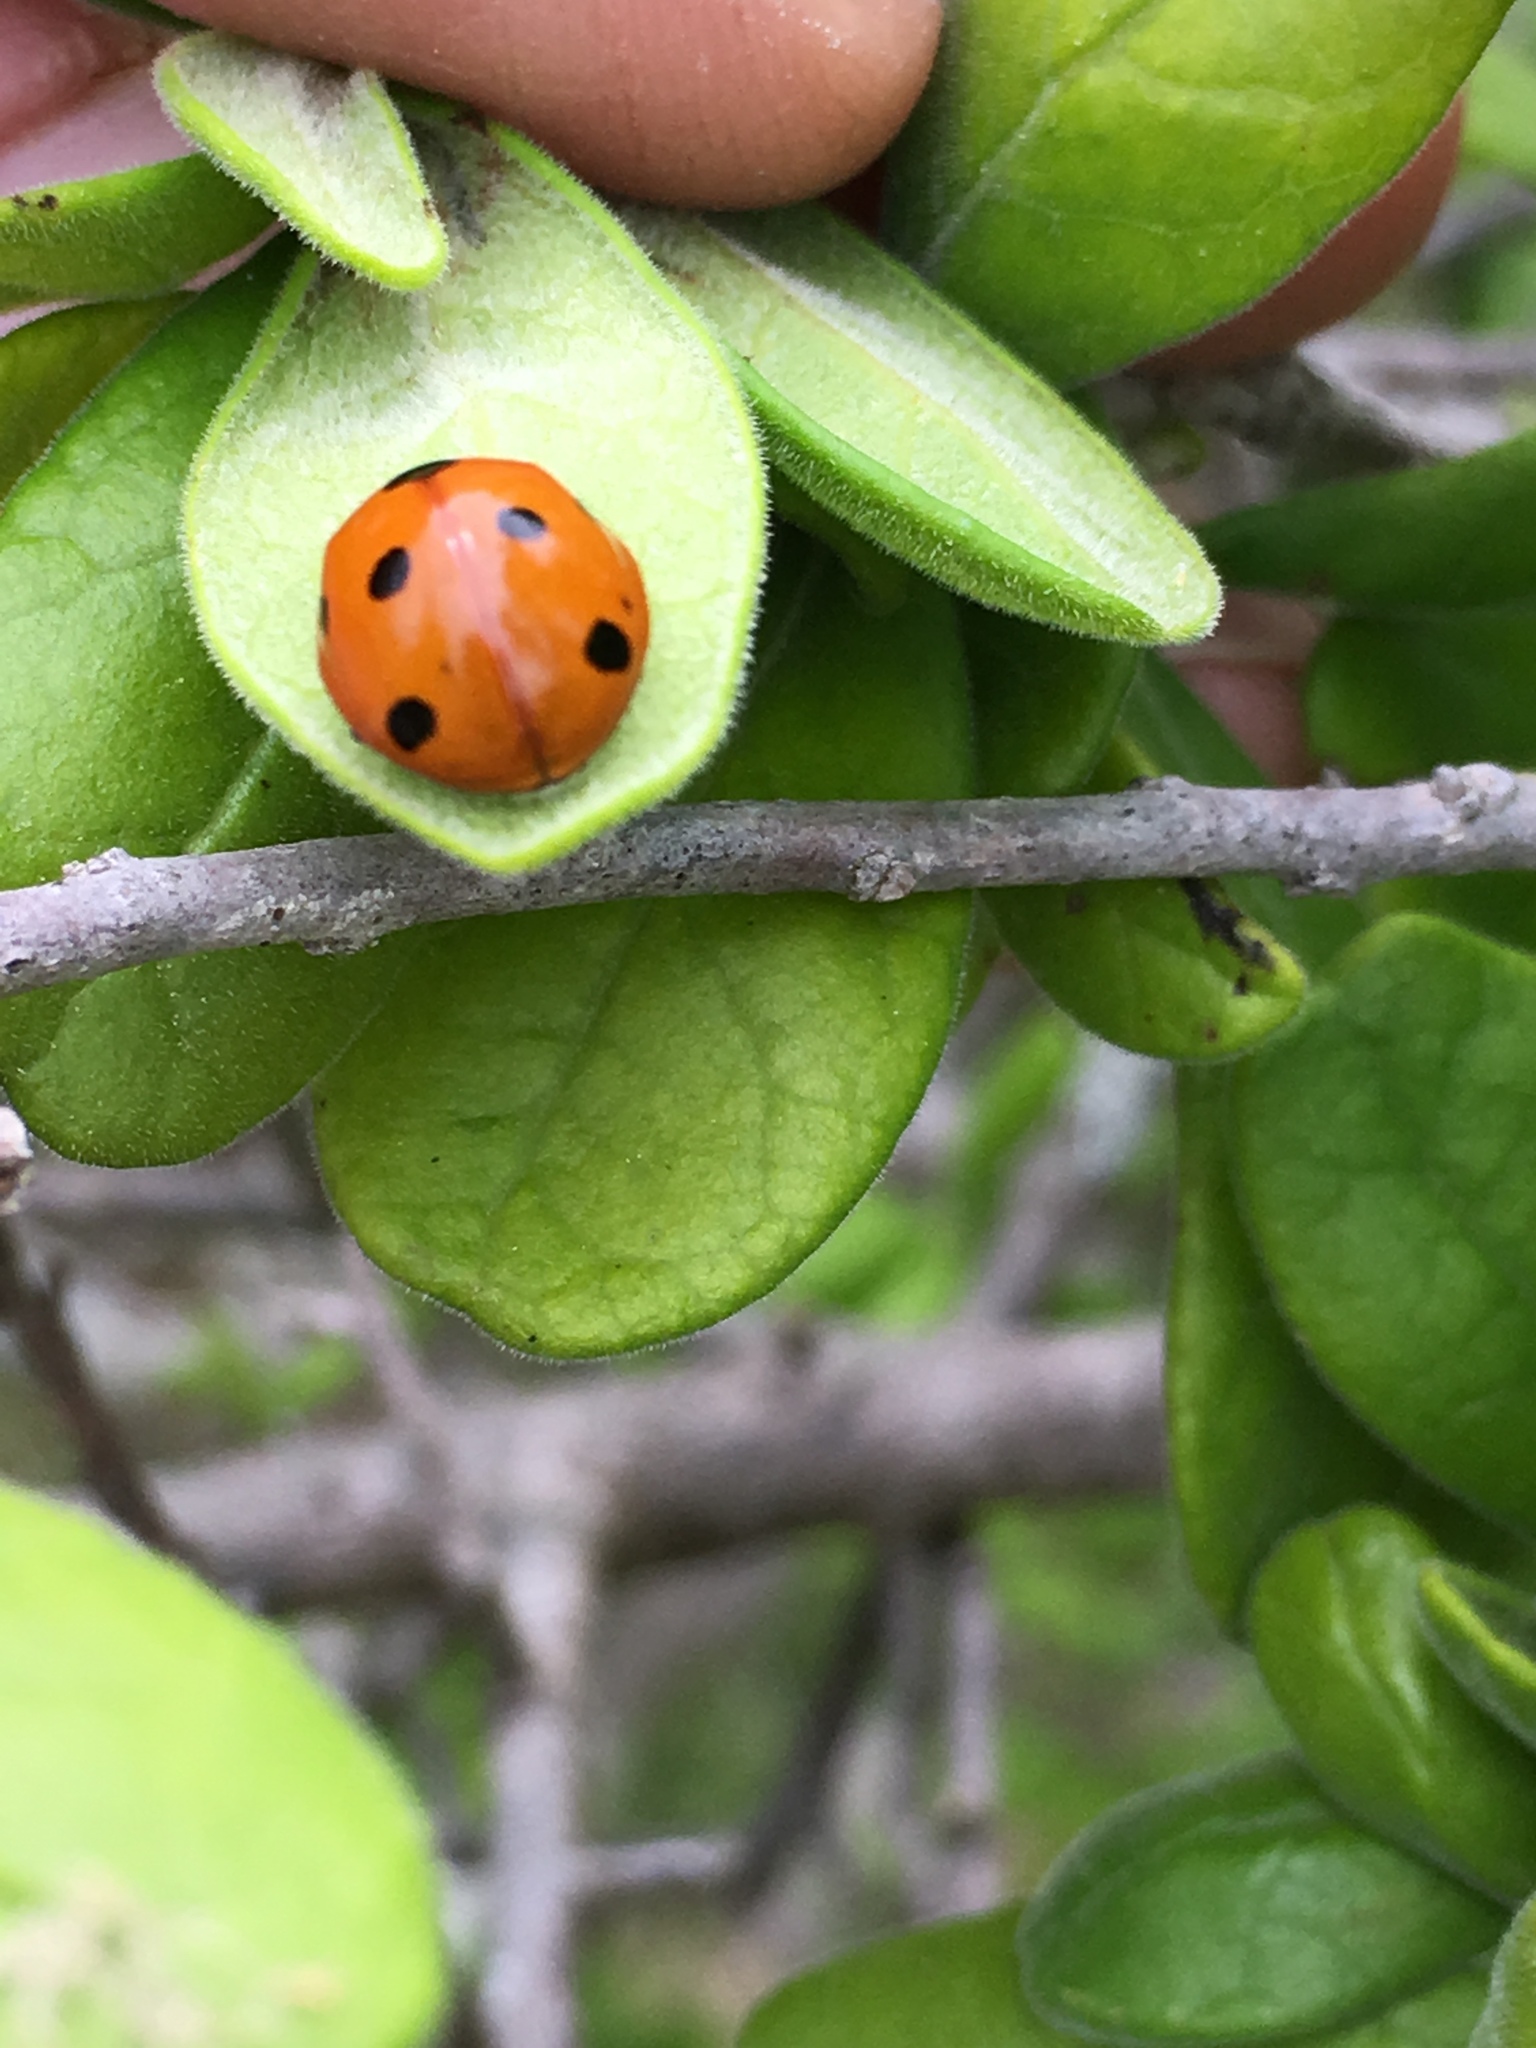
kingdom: Animalia
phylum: Arthropoda
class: Insecta
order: Coleoptera
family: Coccinellidae
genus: Coccinella
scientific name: Coccinella septempunctata
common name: Sevenspotted lady beetle
